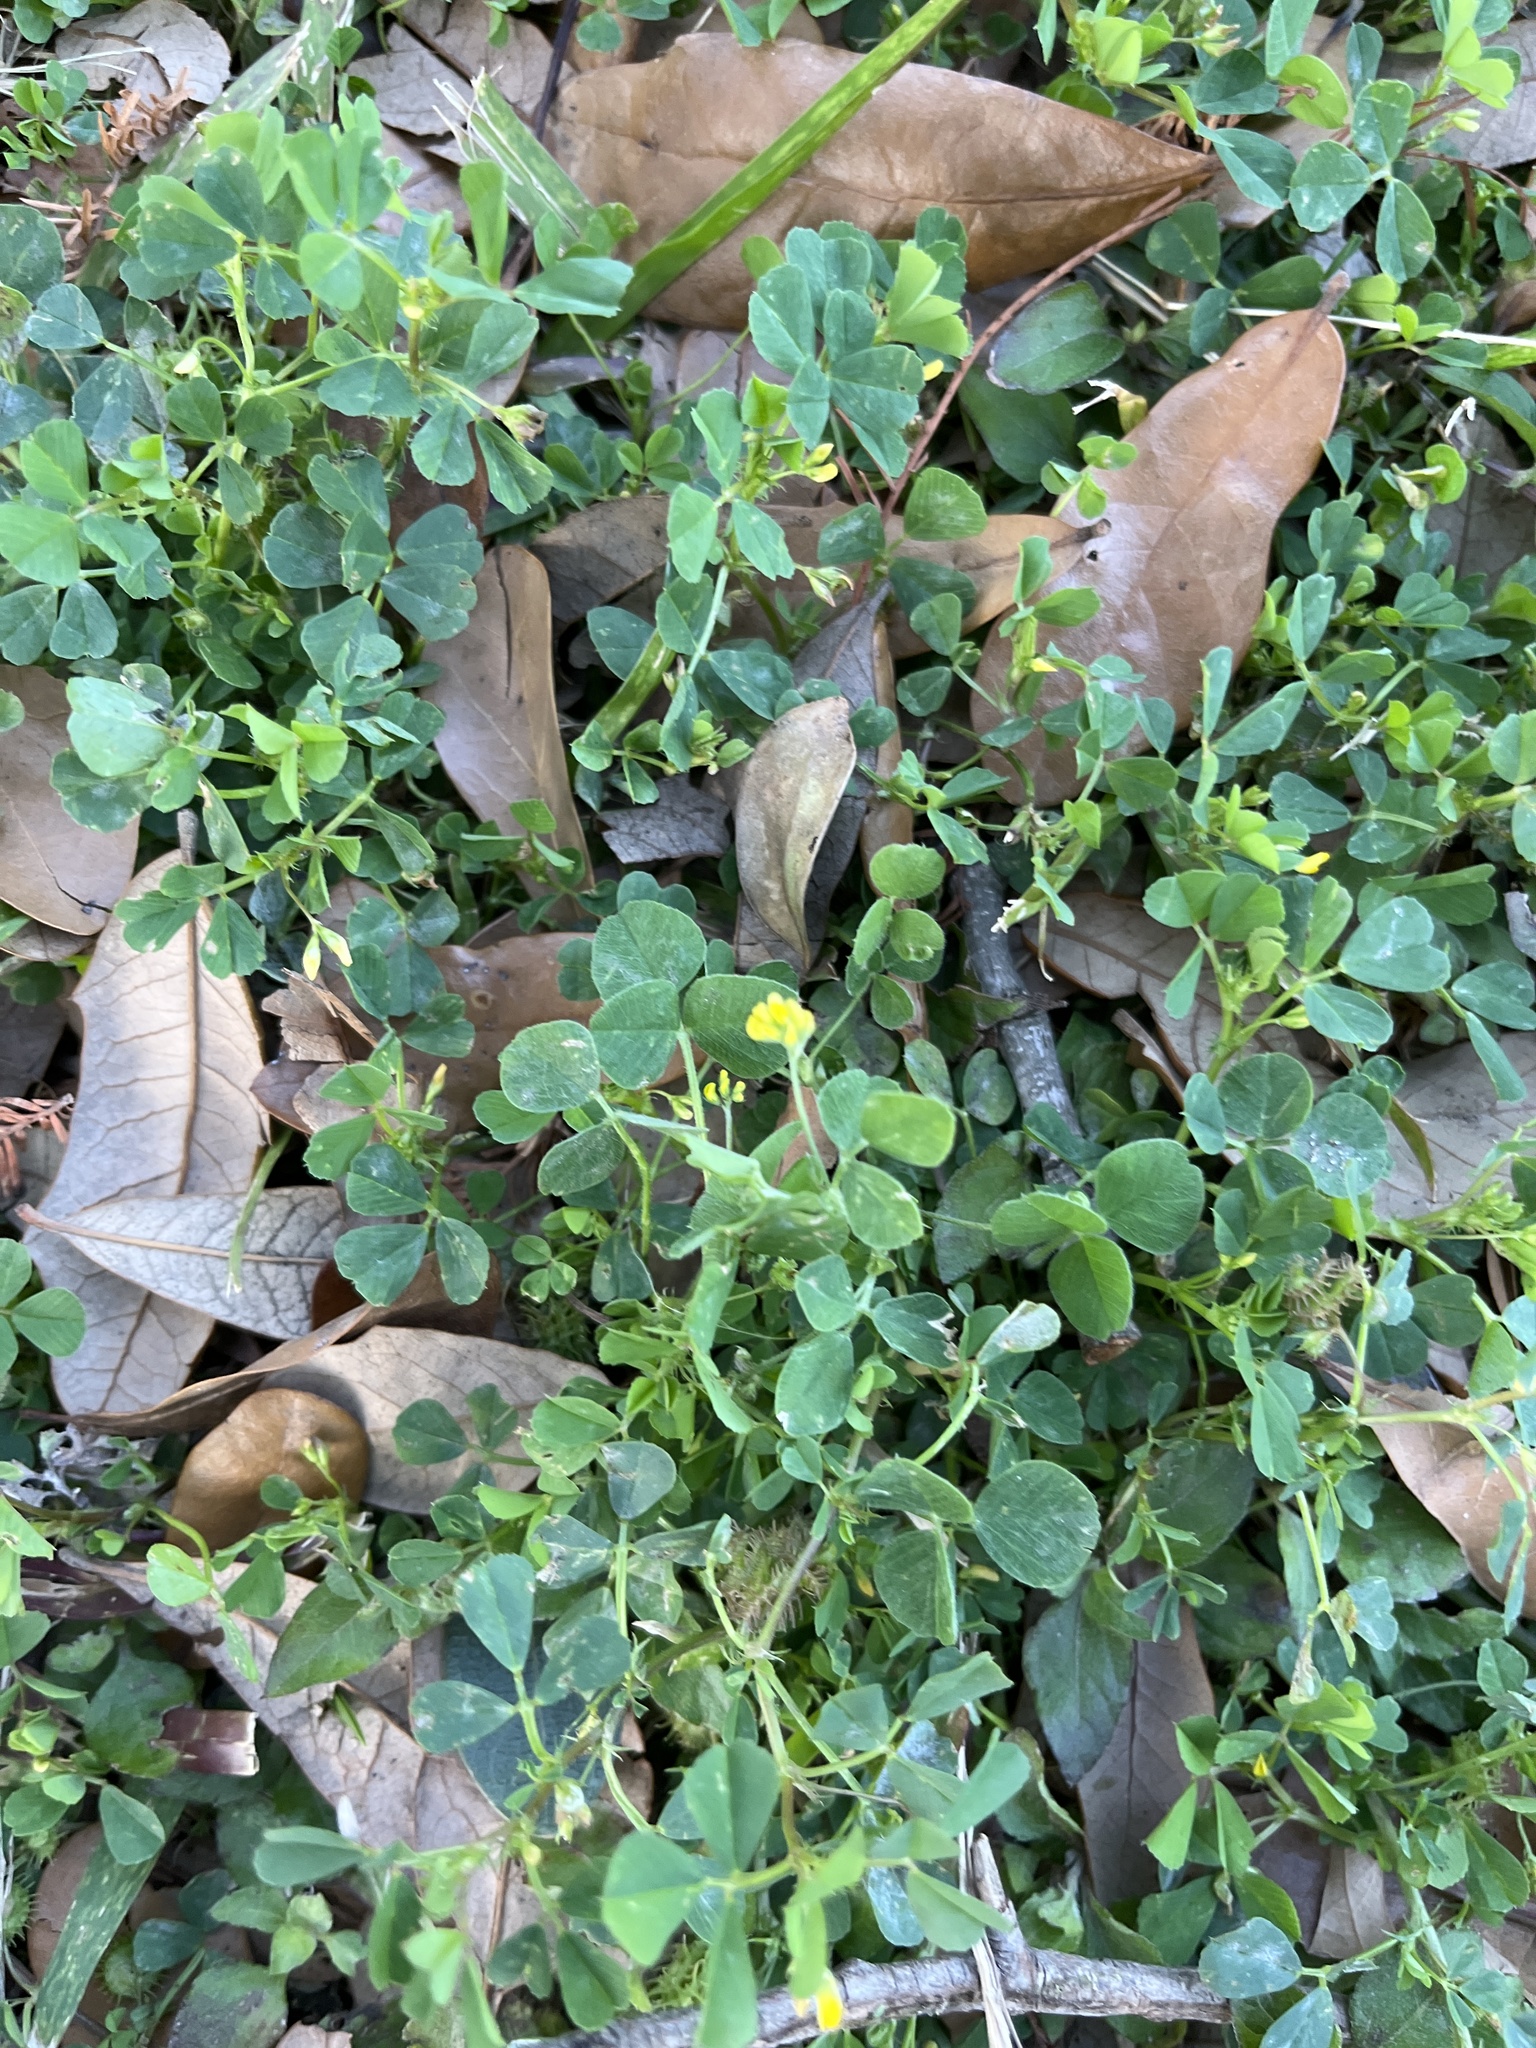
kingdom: Plantae
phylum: Tracheophyta
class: Magnoliopsida
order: Fabales
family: Fabaceae
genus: Medicago
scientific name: Medicago lupulina
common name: Black medick
